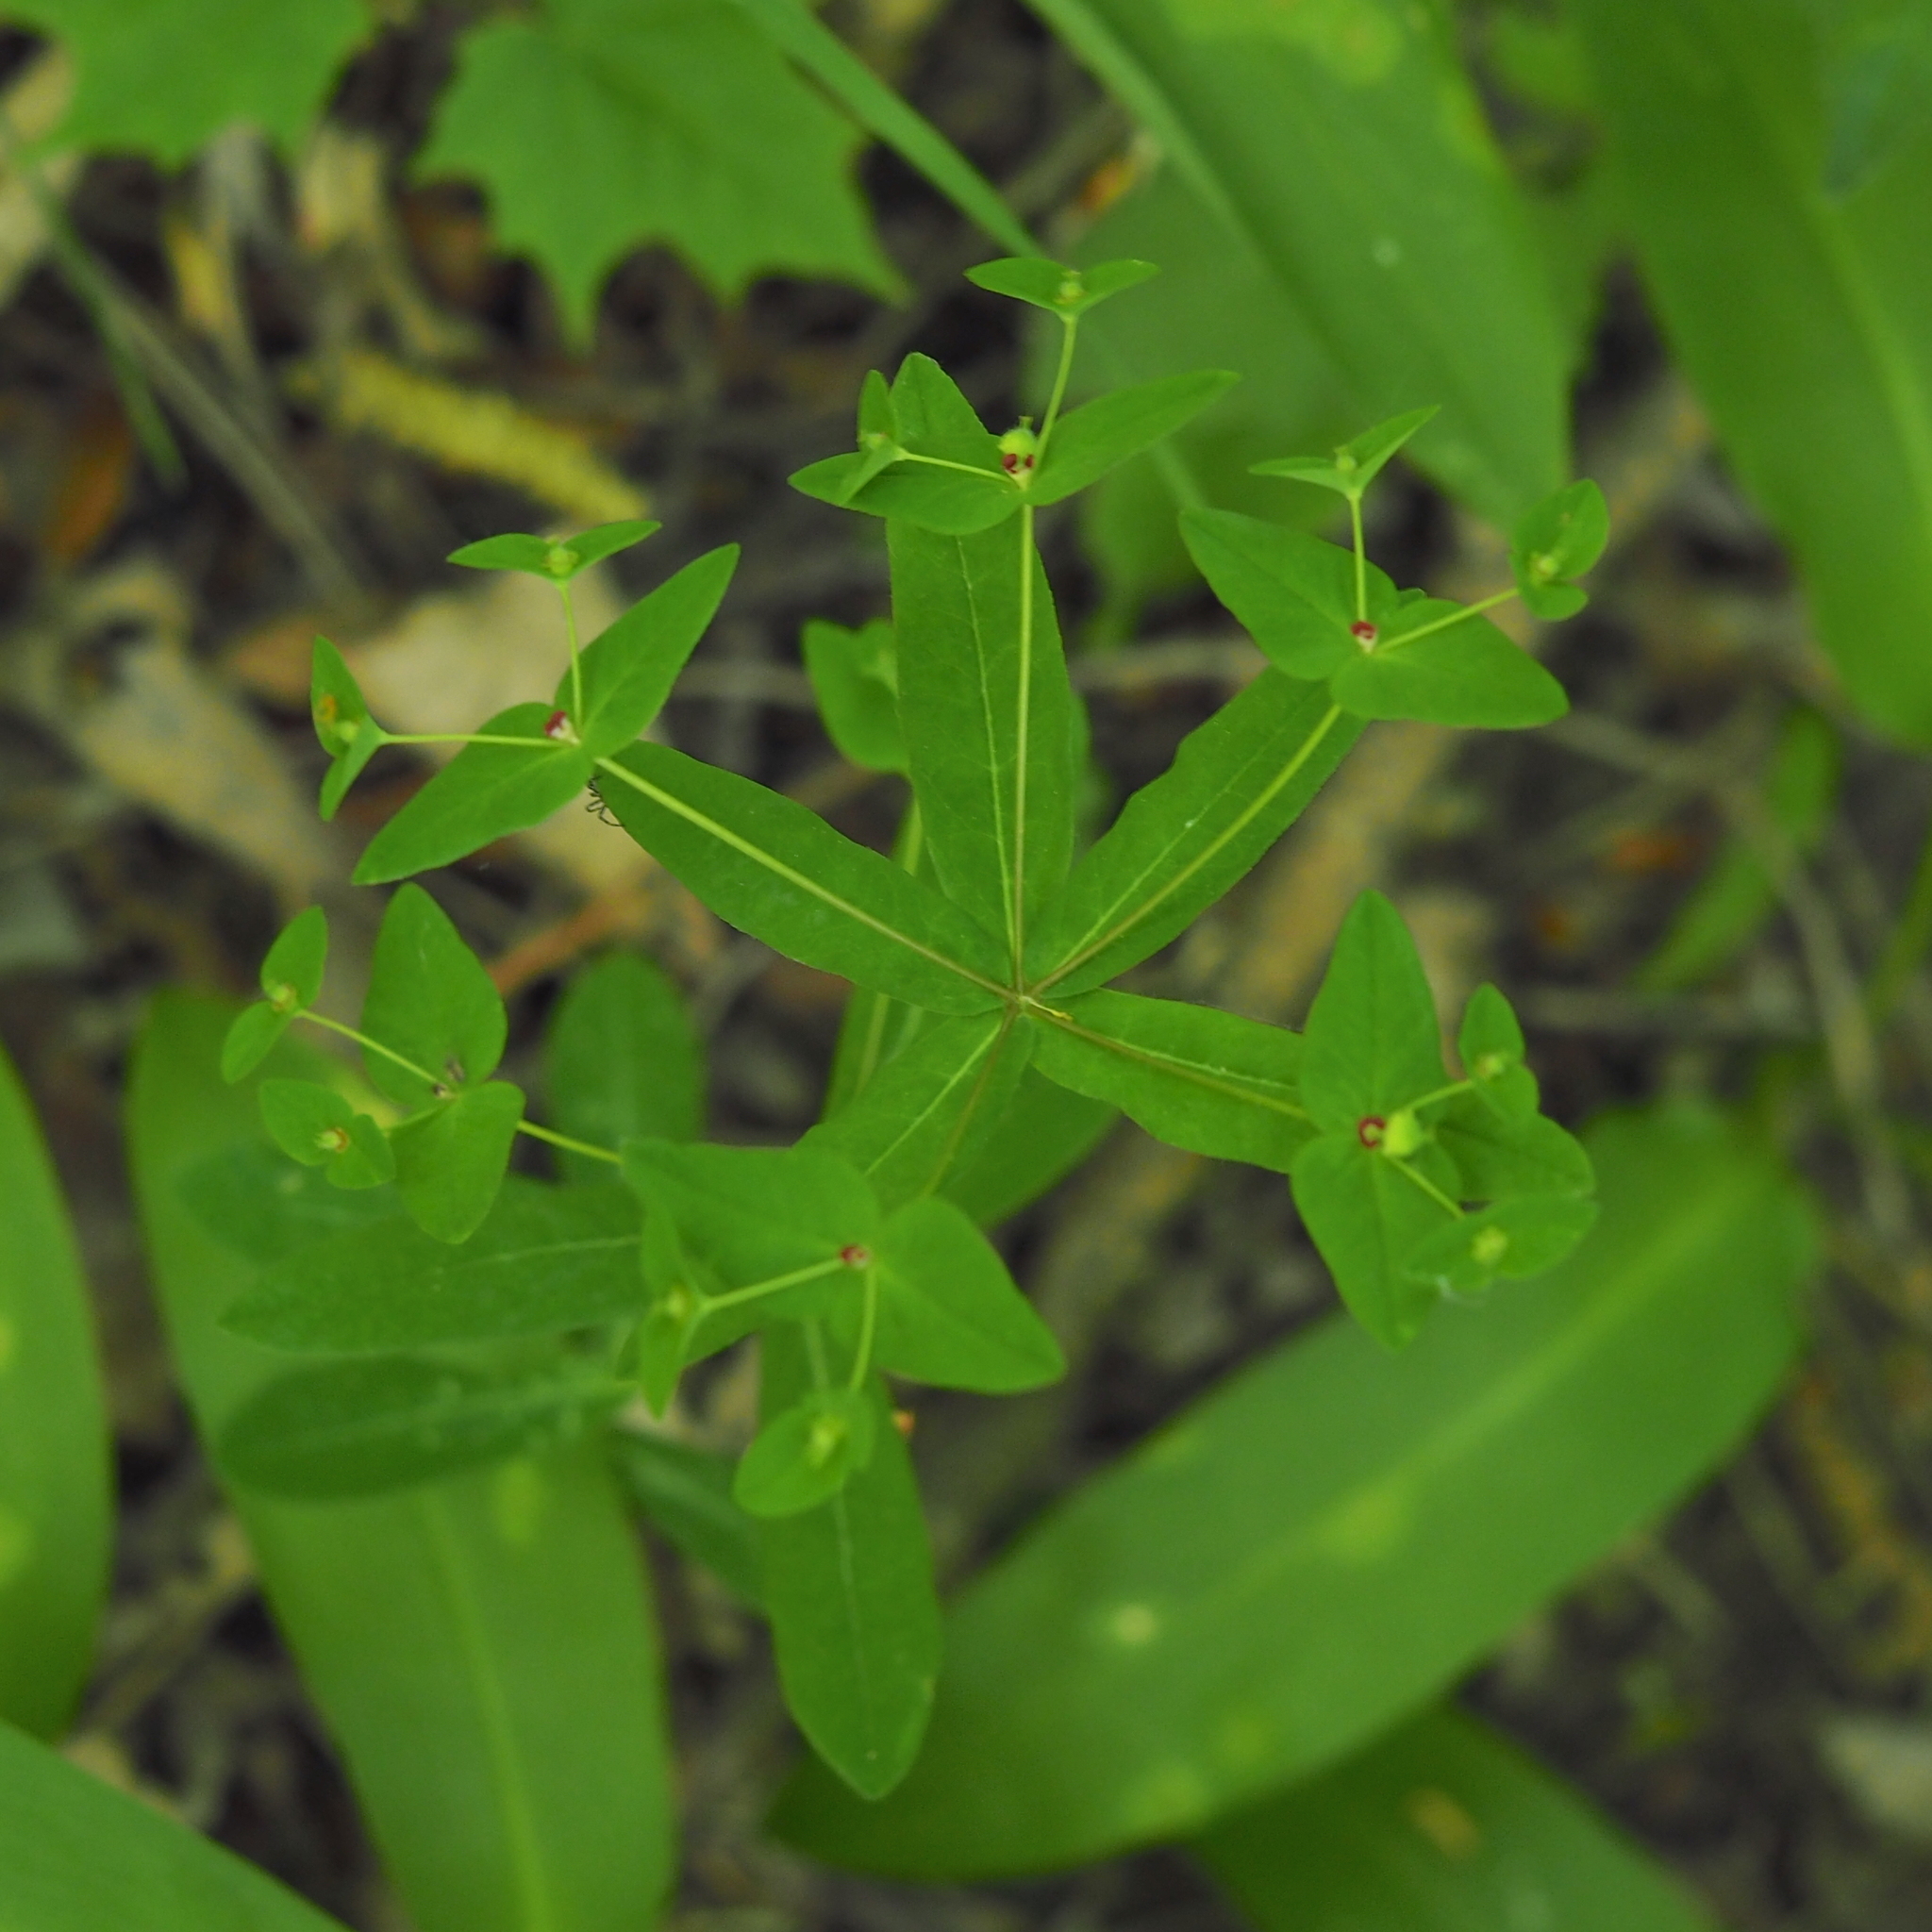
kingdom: Plantae
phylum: Tracheophyta
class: Magnoliopsida
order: Malpighiales
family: Euphorbiaceae
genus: Euphorbia
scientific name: Euphorbia dulcis
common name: Sweet spurge
